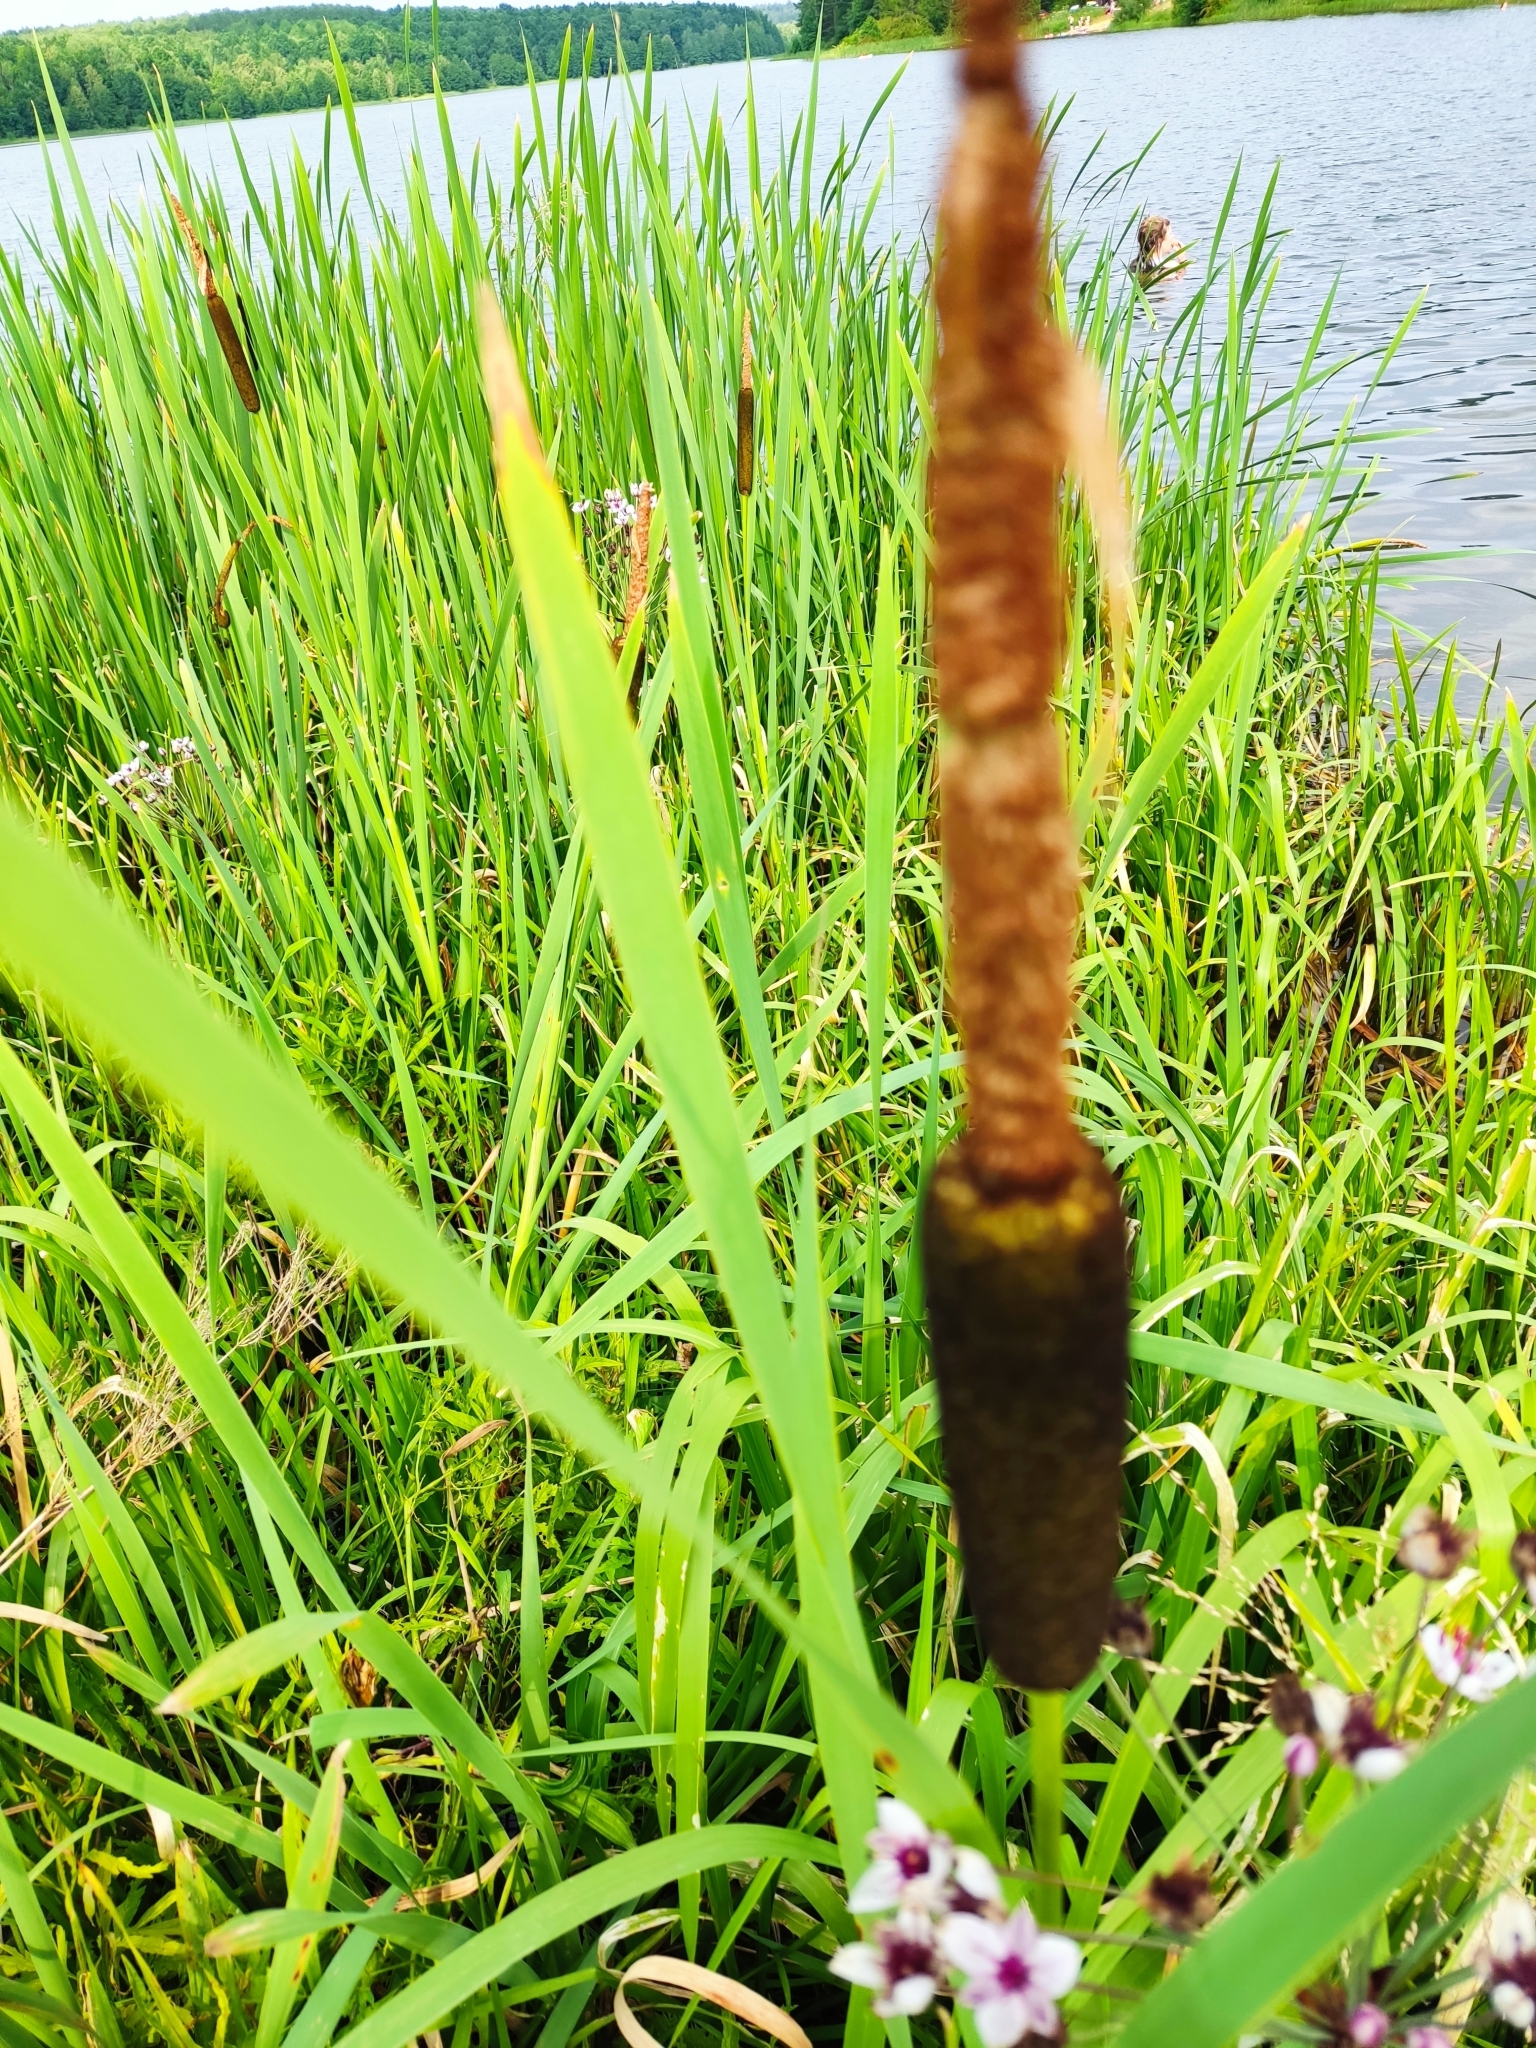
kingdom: Plantae
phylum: Tracheophyta
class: Liliopsida
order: Poales
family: Typhaceae
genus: Typha
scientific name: Typha latifolia
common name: Broadleaf cattail
